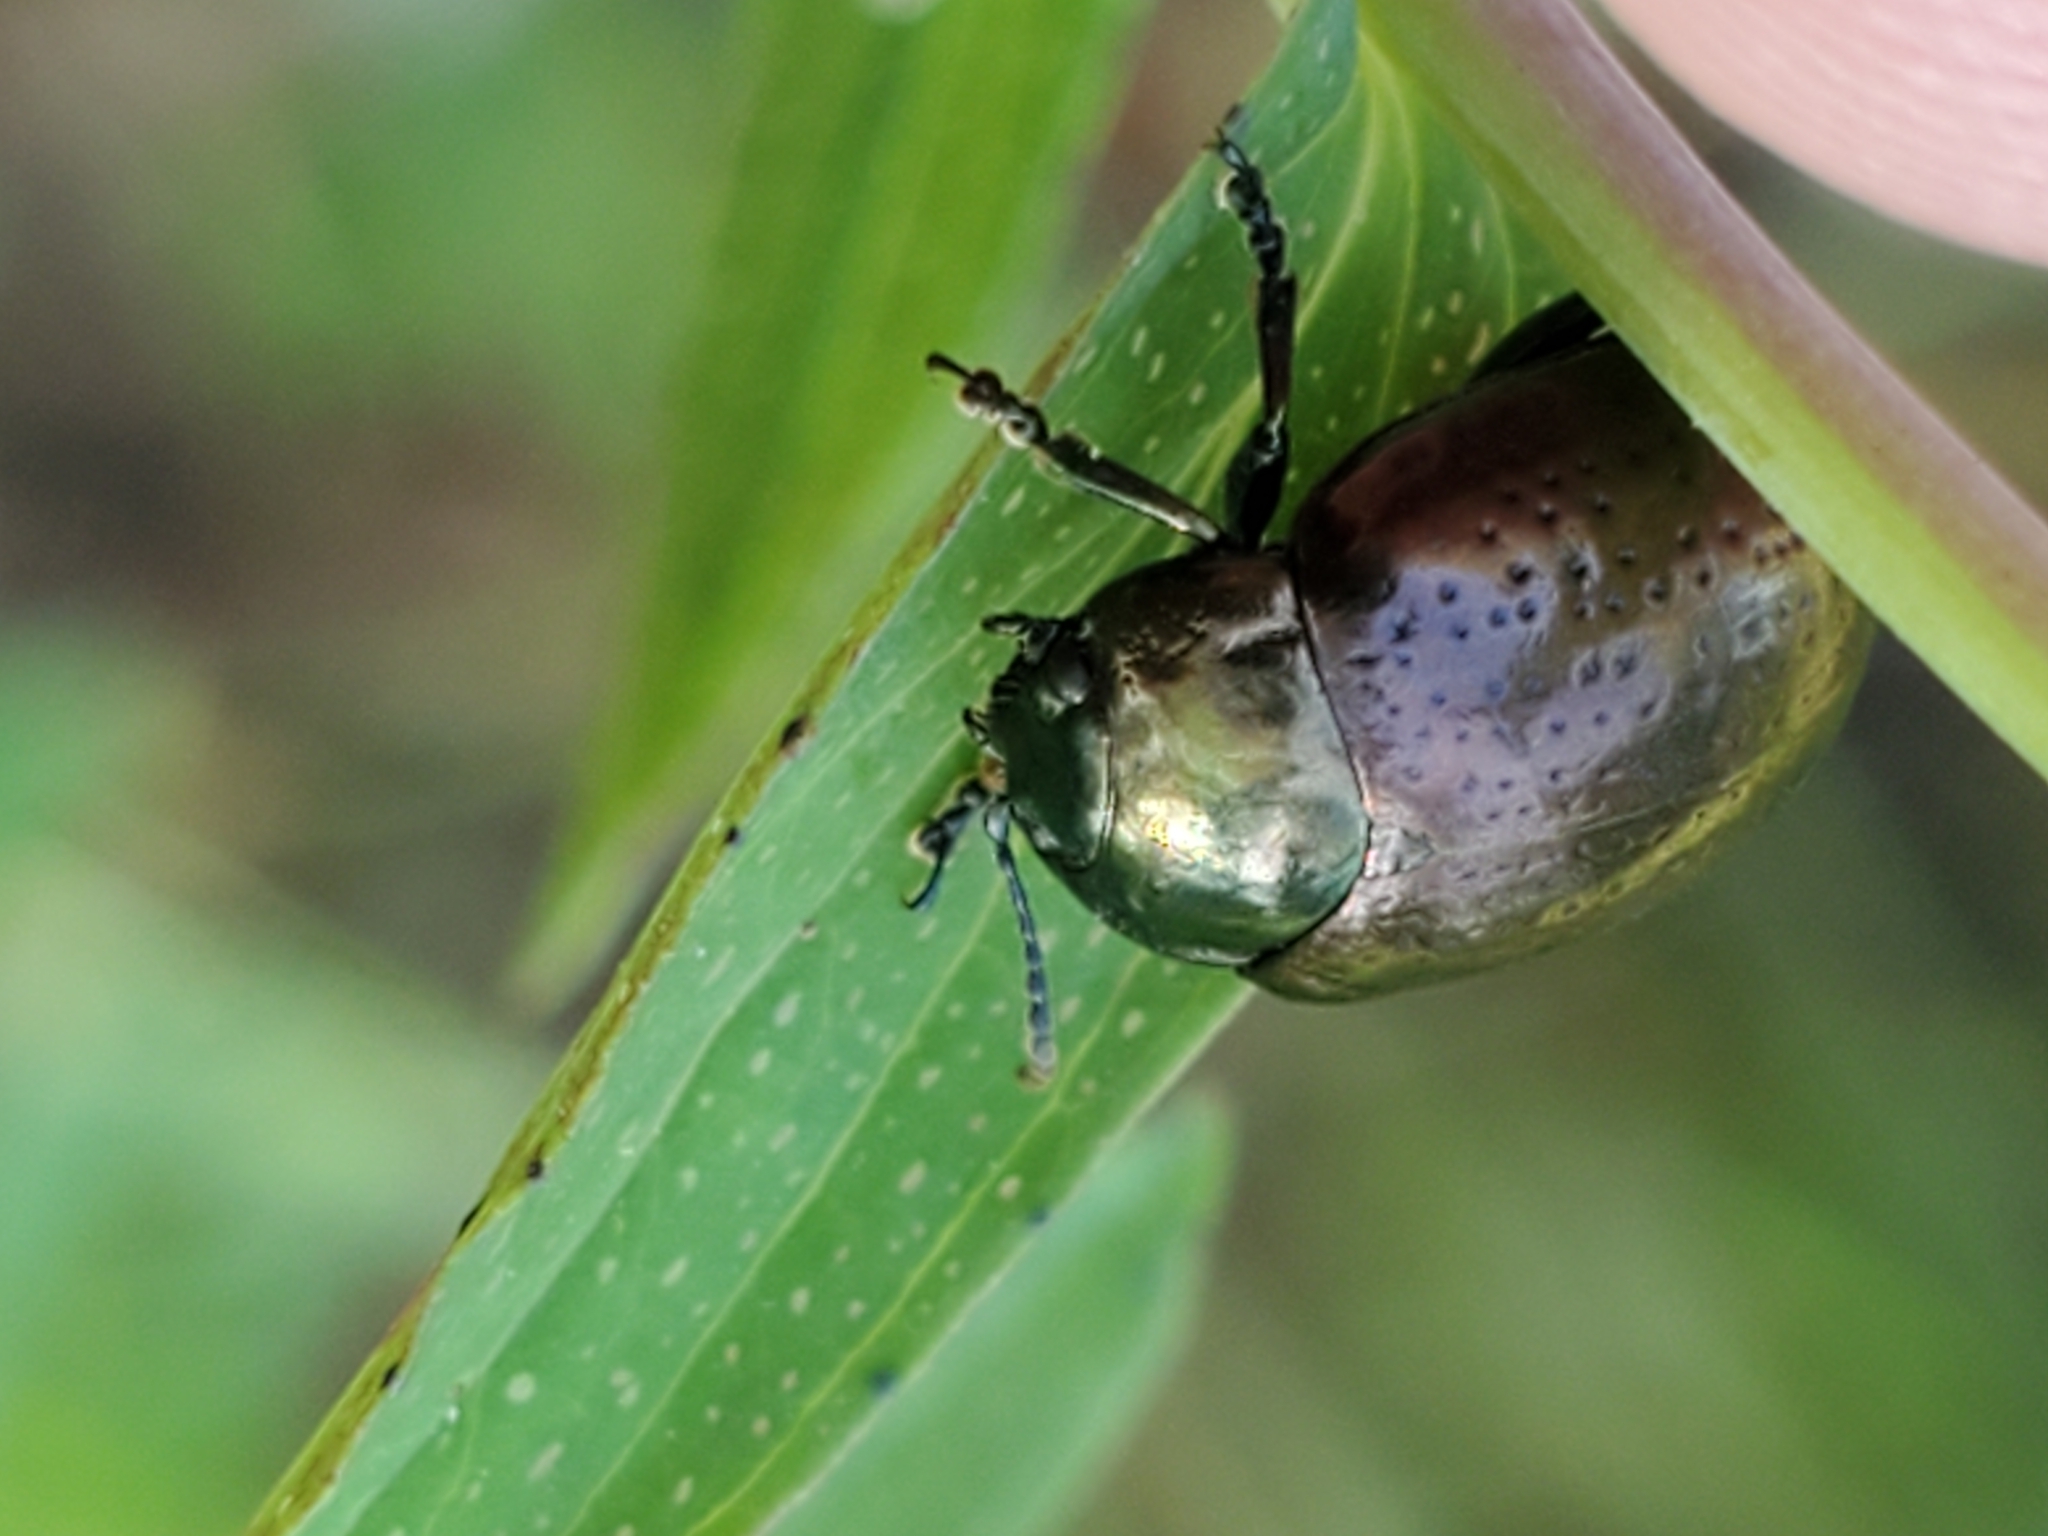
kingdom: Animalia
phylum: Arthropoda
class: Insecta
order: Coleoptera
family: Chrysomelidae
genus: Chrysolina
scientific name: Chrysolina hyperici
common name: St. johnswort beetle
